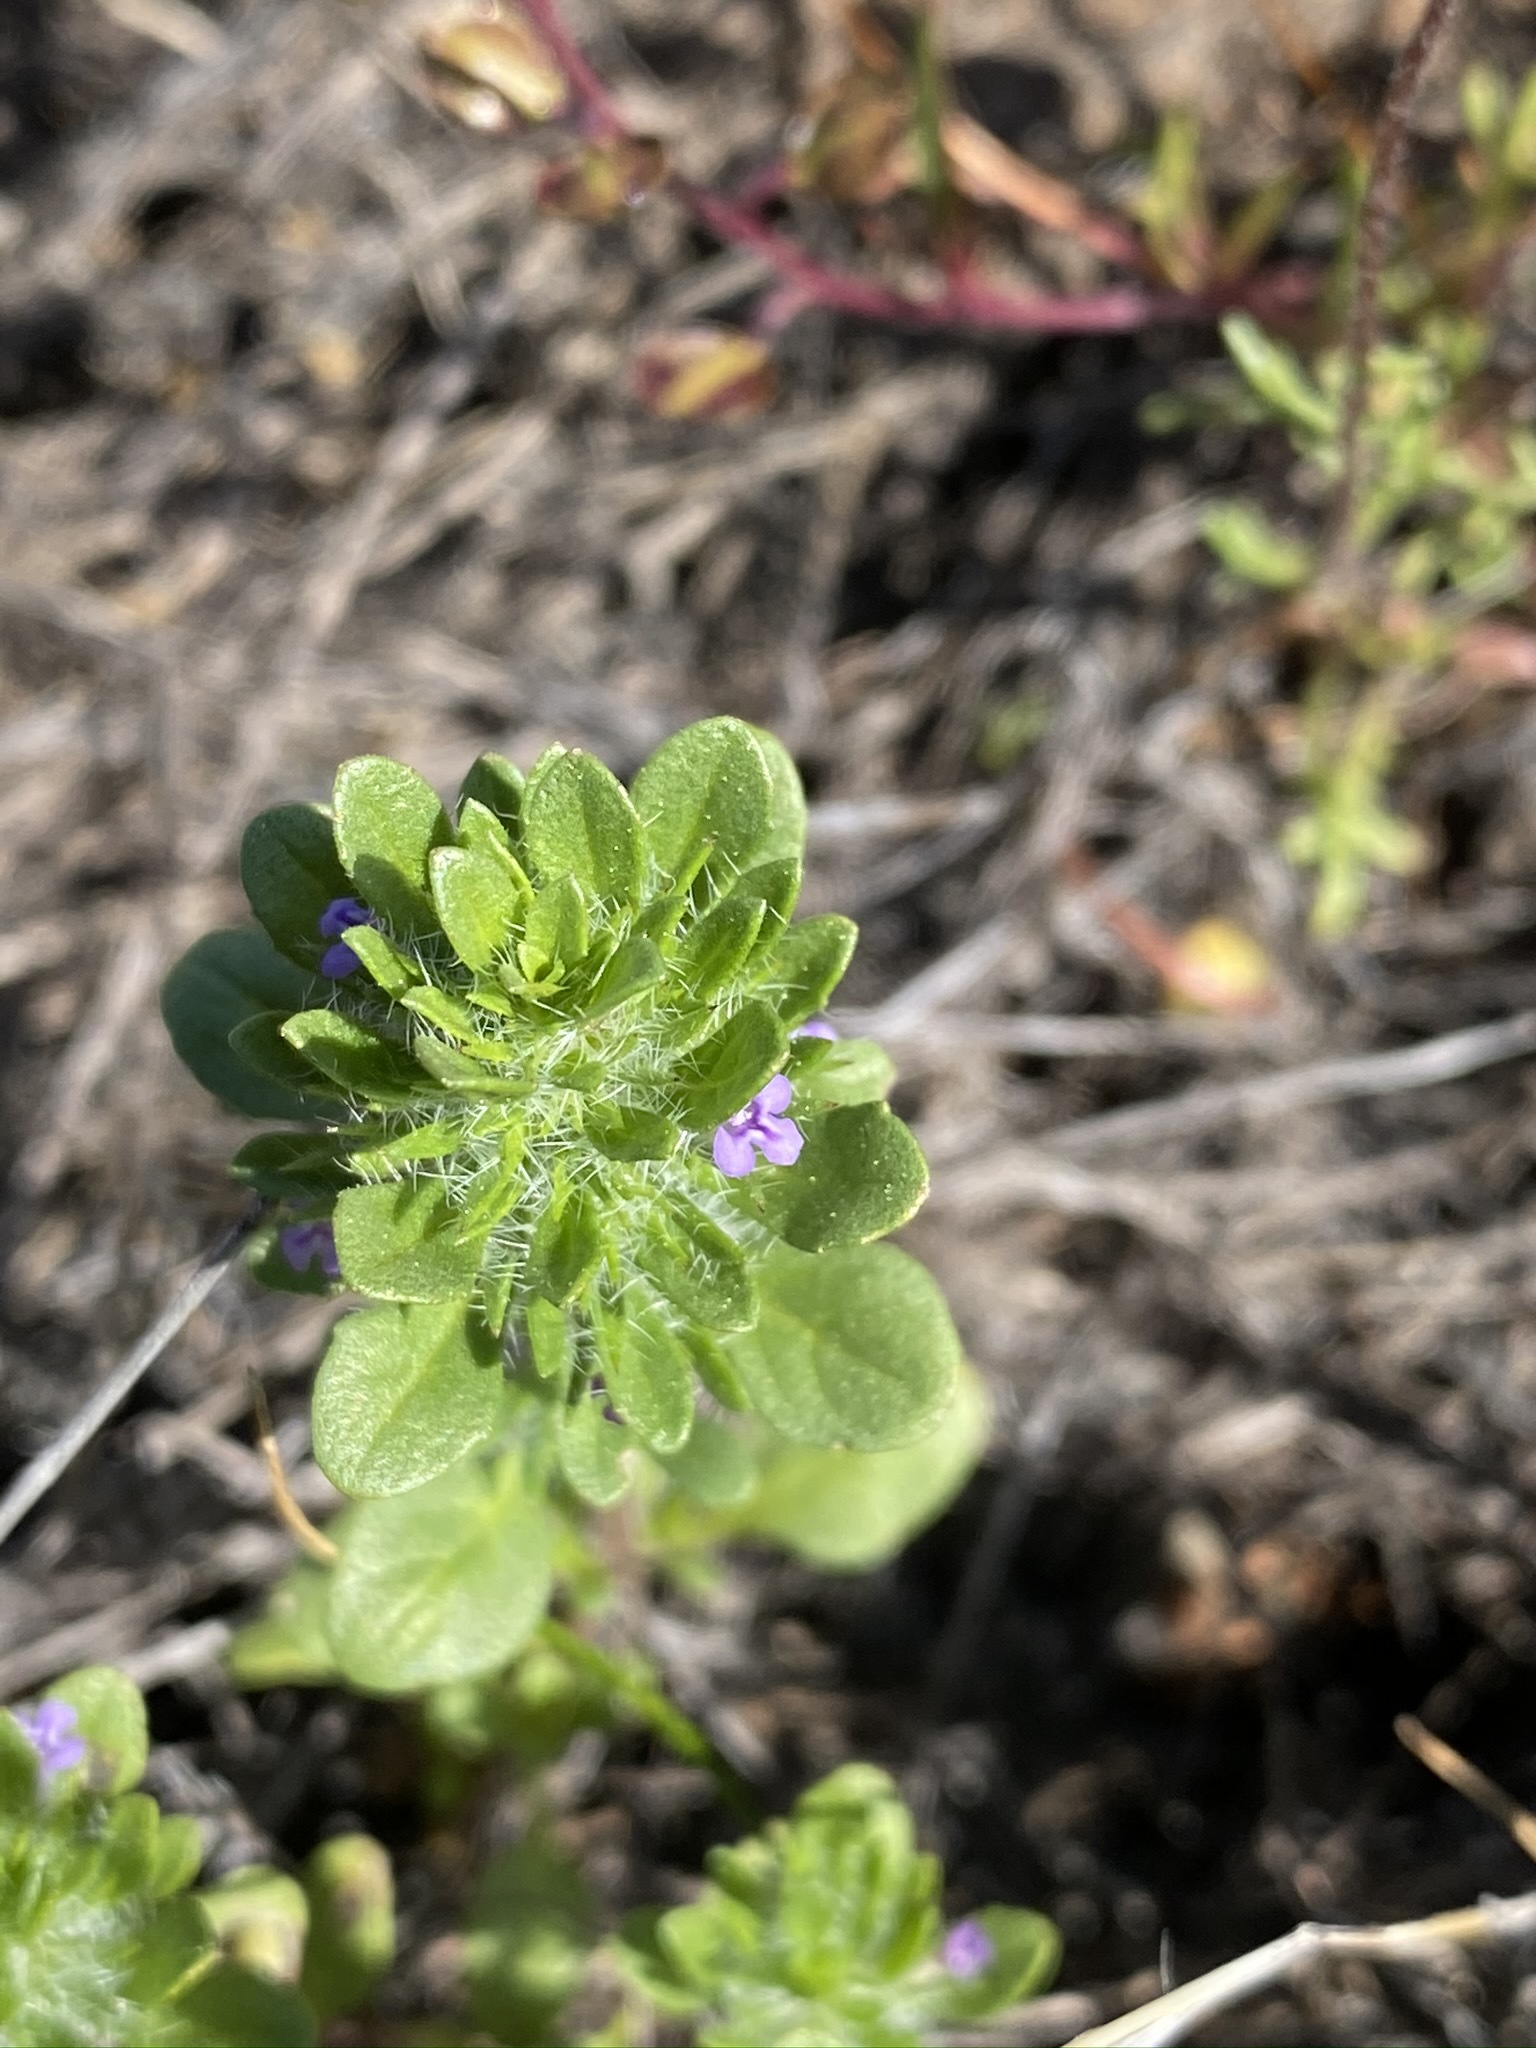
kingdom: Plantae
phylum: Tracheophyta
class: Magnoliopsida
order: Lamiales
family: Lamiaceae
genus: Pogogyne
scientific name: Pogogyne zizyphoroides
